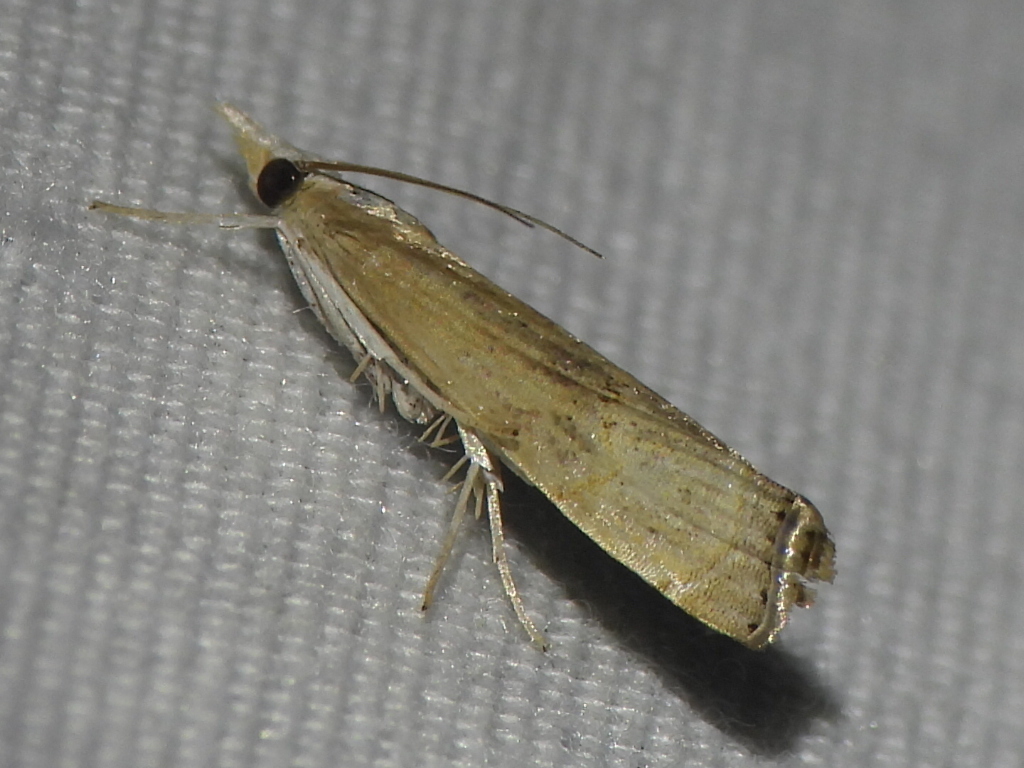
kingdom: Animalia
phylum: Arthropoda
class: Insecta
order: Lepidoptera
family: Crambidae
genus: Parapediasia
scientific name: Parapediasia teterellus
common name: Bluegrass webworm moth
